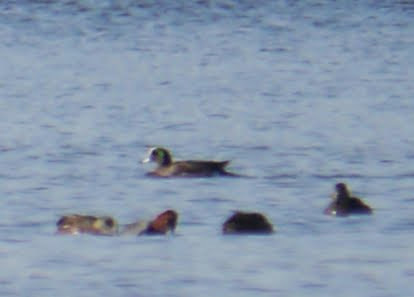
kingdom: Animalia
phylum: Chordata
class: Aves
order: Anseriformes
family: Anatidae
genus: Mareca
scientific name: Mareca americana
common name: American wigeon
